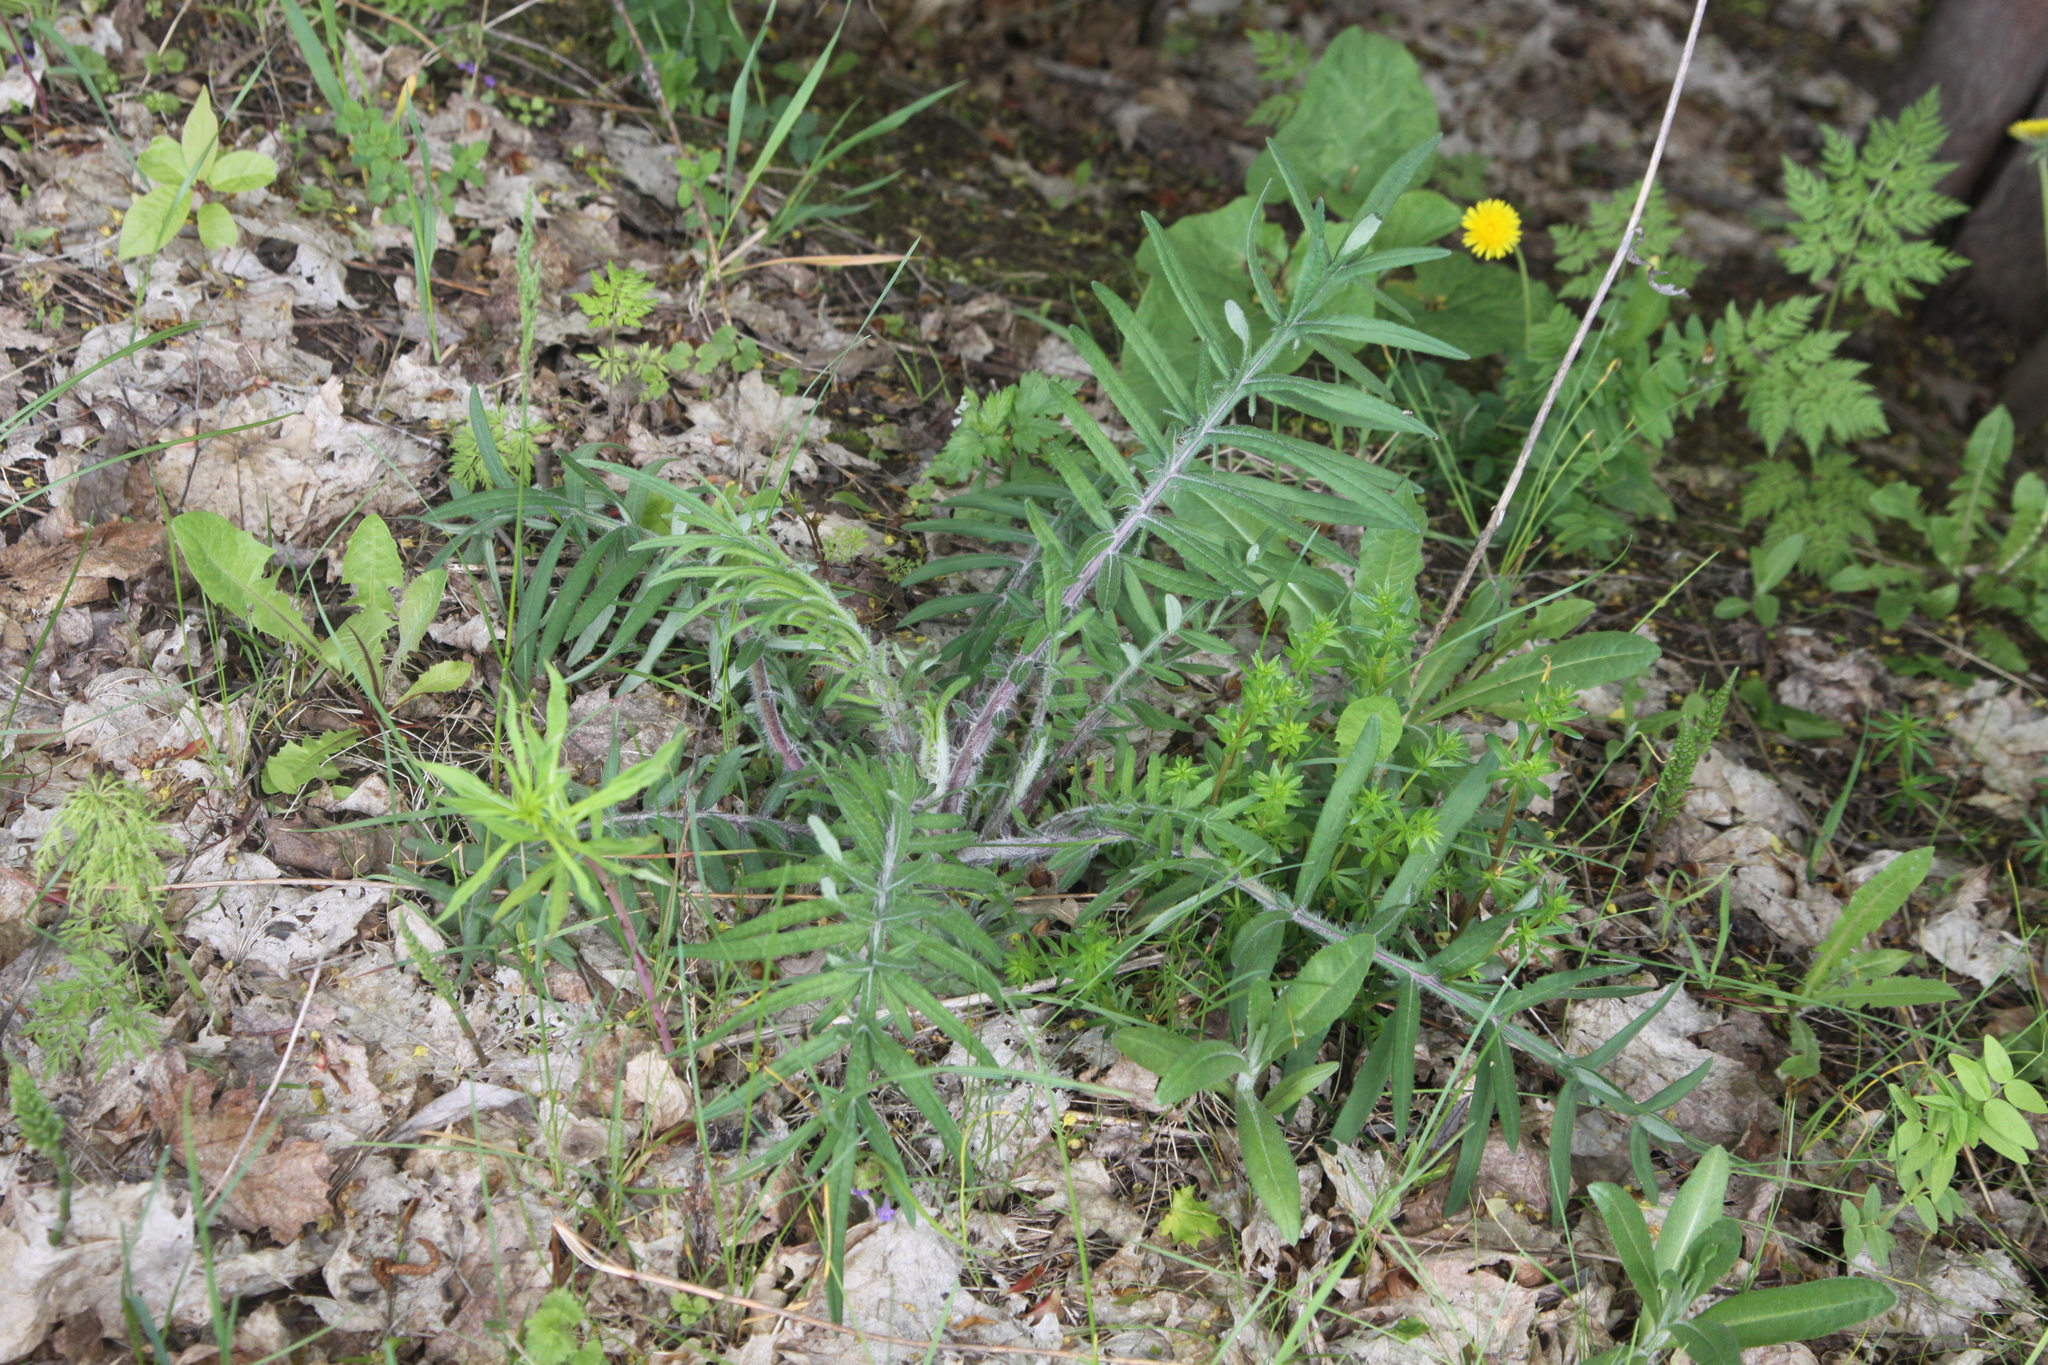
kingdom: Plantae
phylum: Tracheophyta
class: Magnoliopsida
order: Asterales
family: Asteraceae
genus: Lophiolepis
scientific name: Lophiolepis decussata
